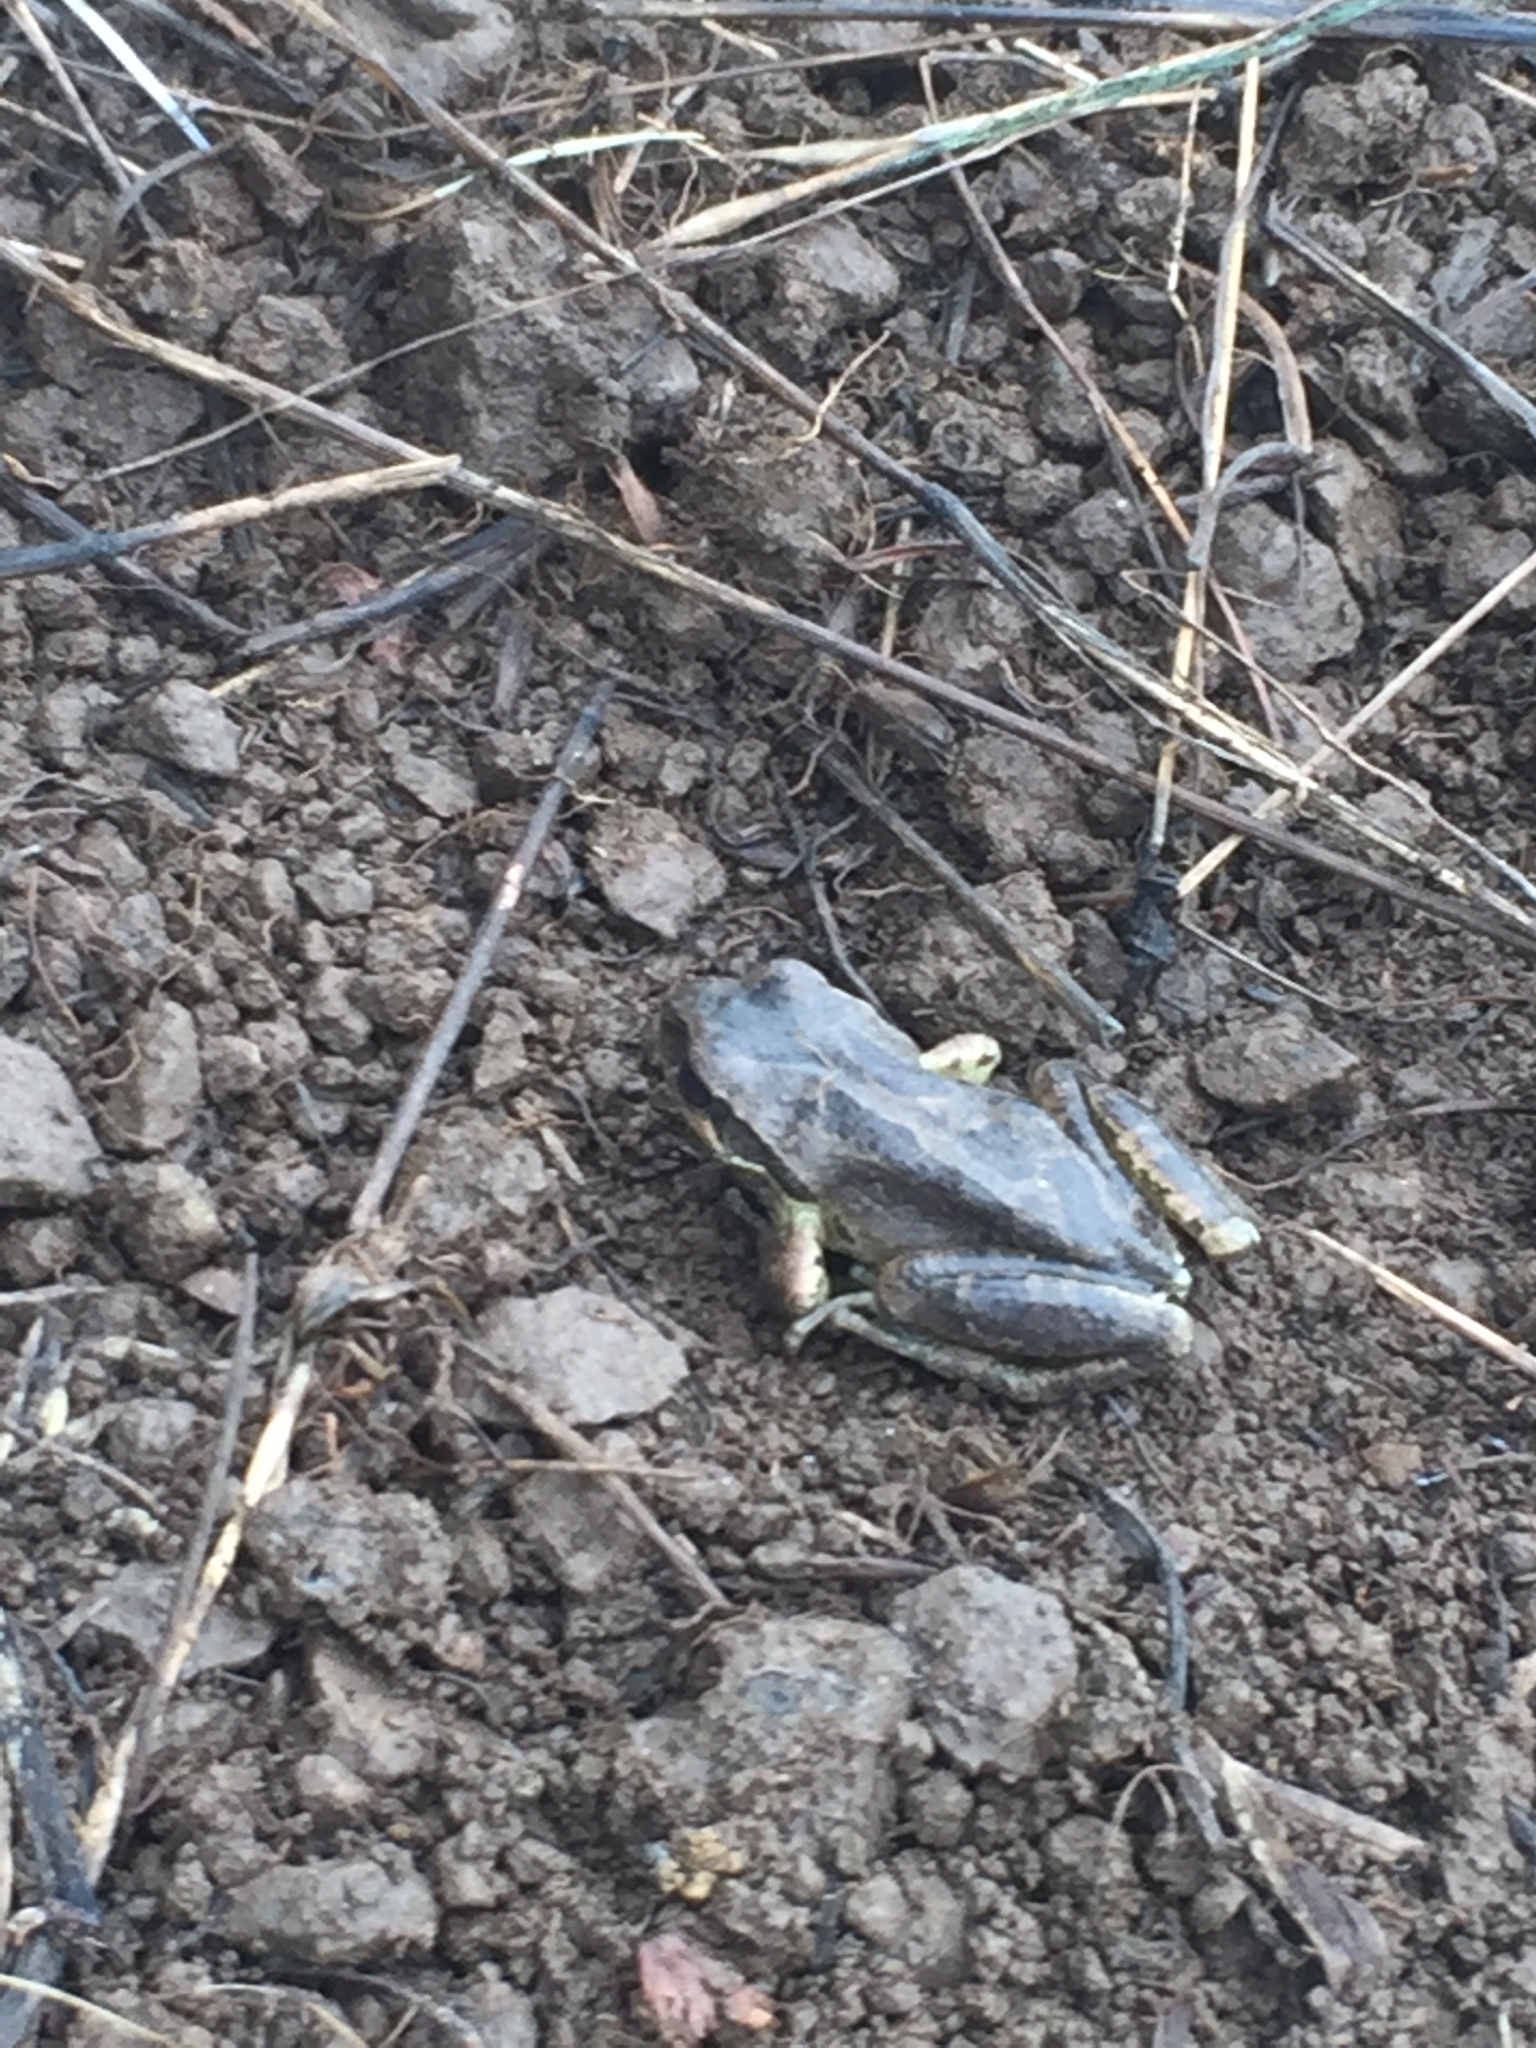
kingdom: Animalia
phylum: Chordata
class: Amphibia
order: Anura
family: Hylidae
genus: Pseudacris
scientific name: Pseudacris regilla
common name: Pacific chorus frog
